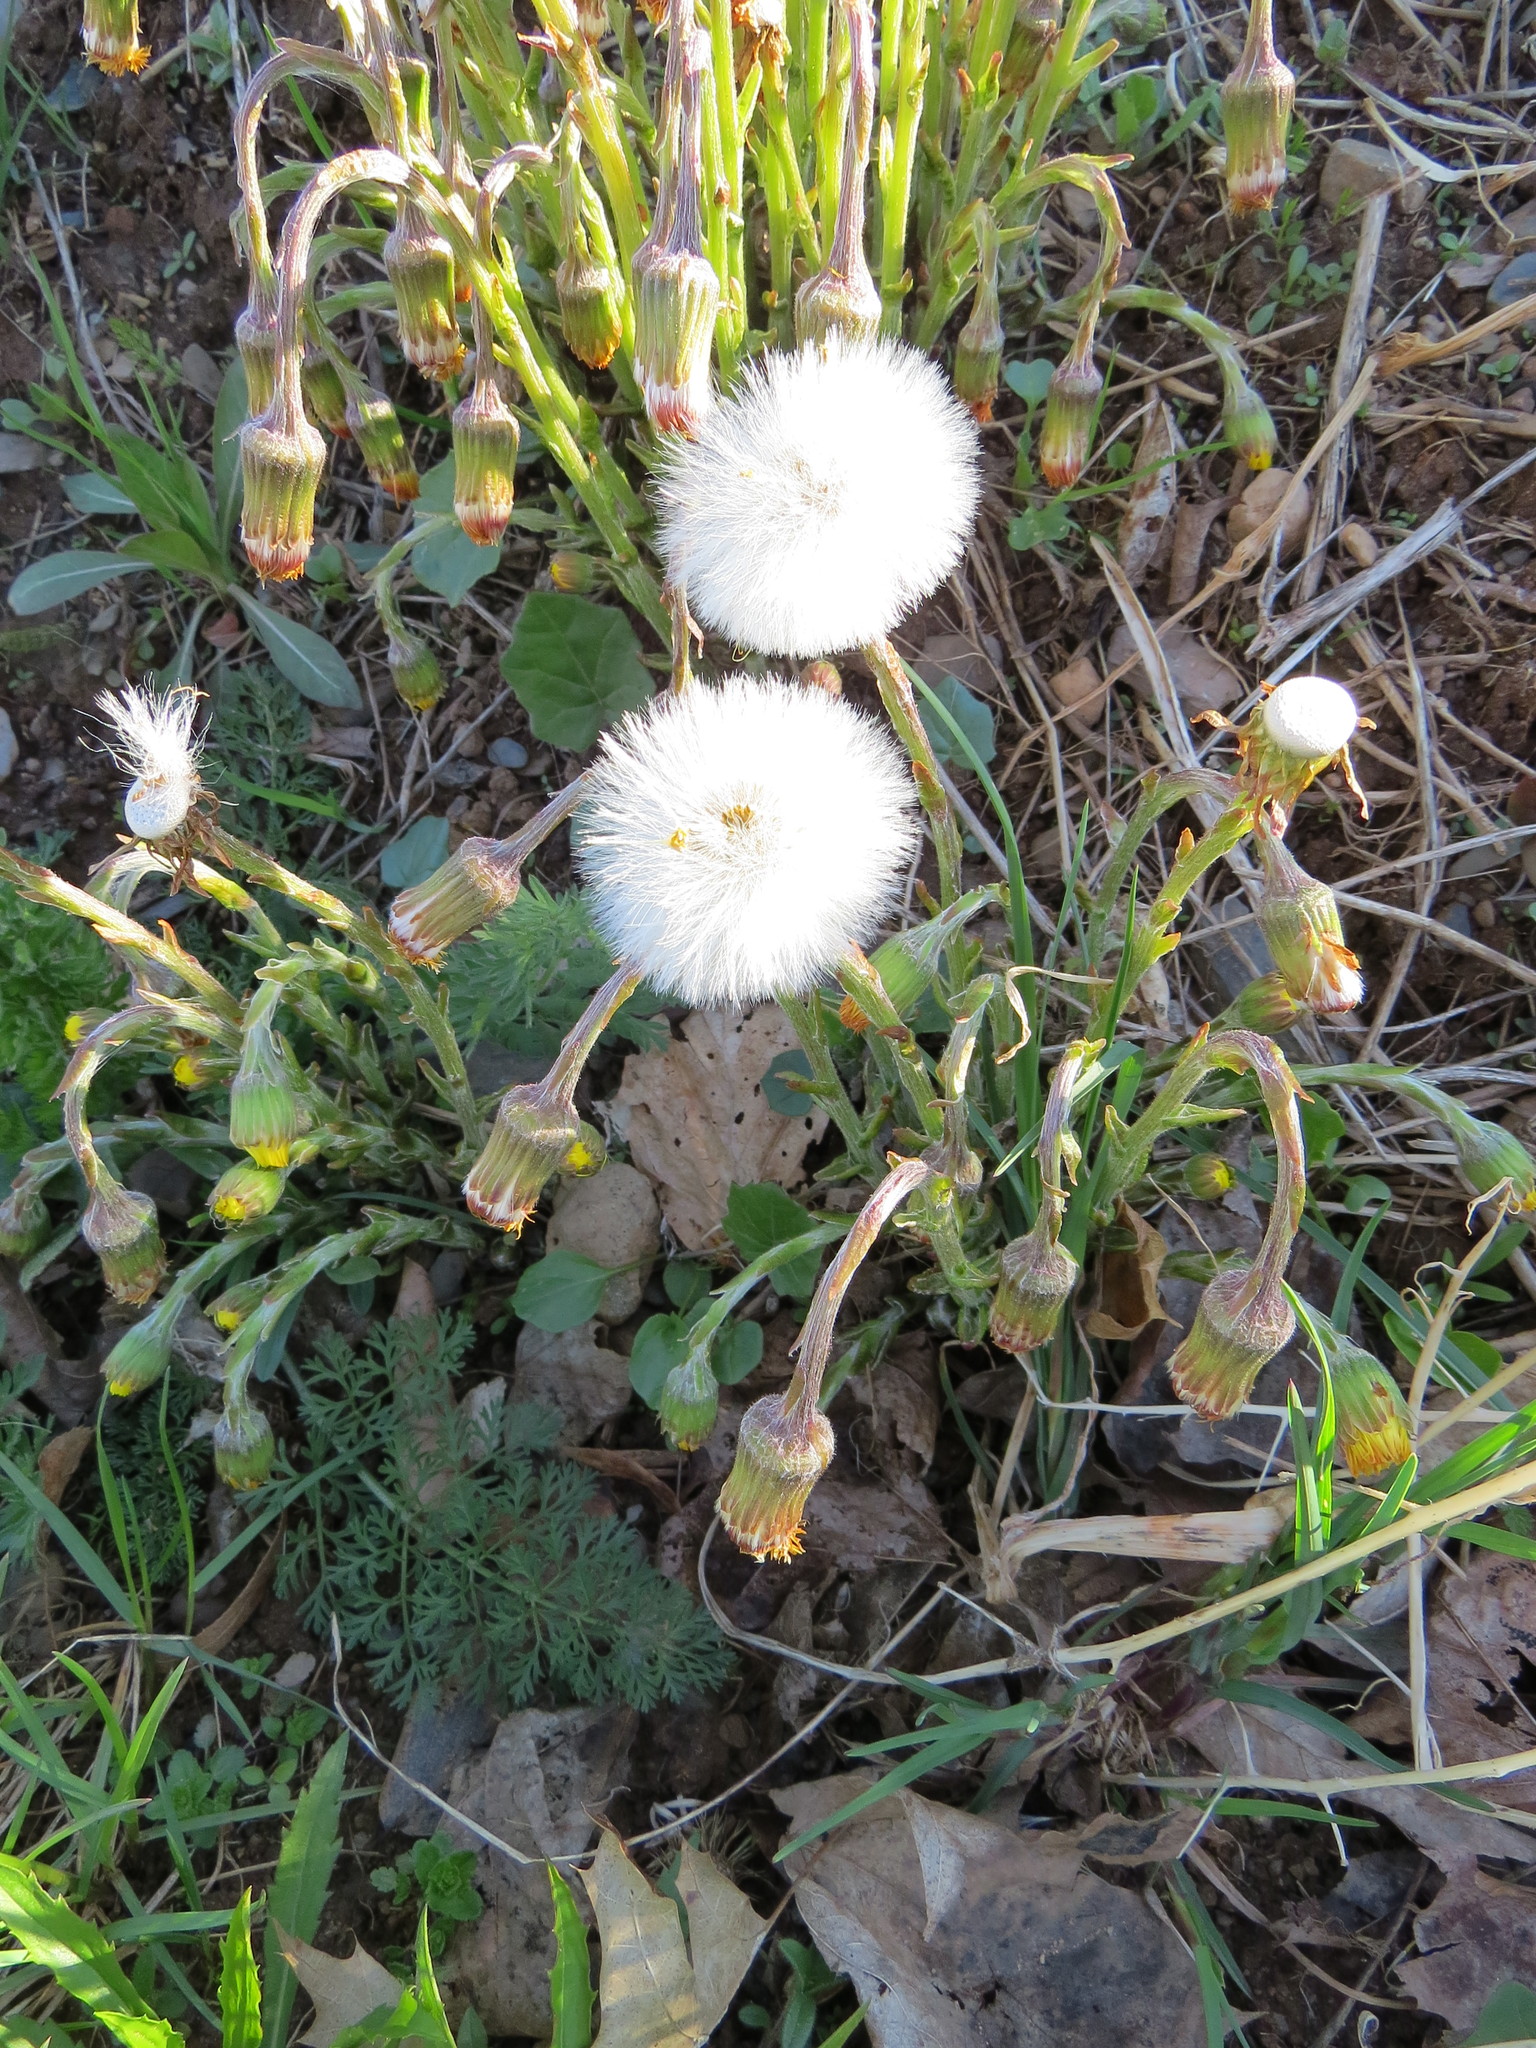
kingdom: Plantae
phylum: Tracheophyta
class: Magnoliopsida
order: Asterales
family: Asteraceae
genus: Tussilago
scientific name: Tussilago farfara
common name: Coltsfoot
